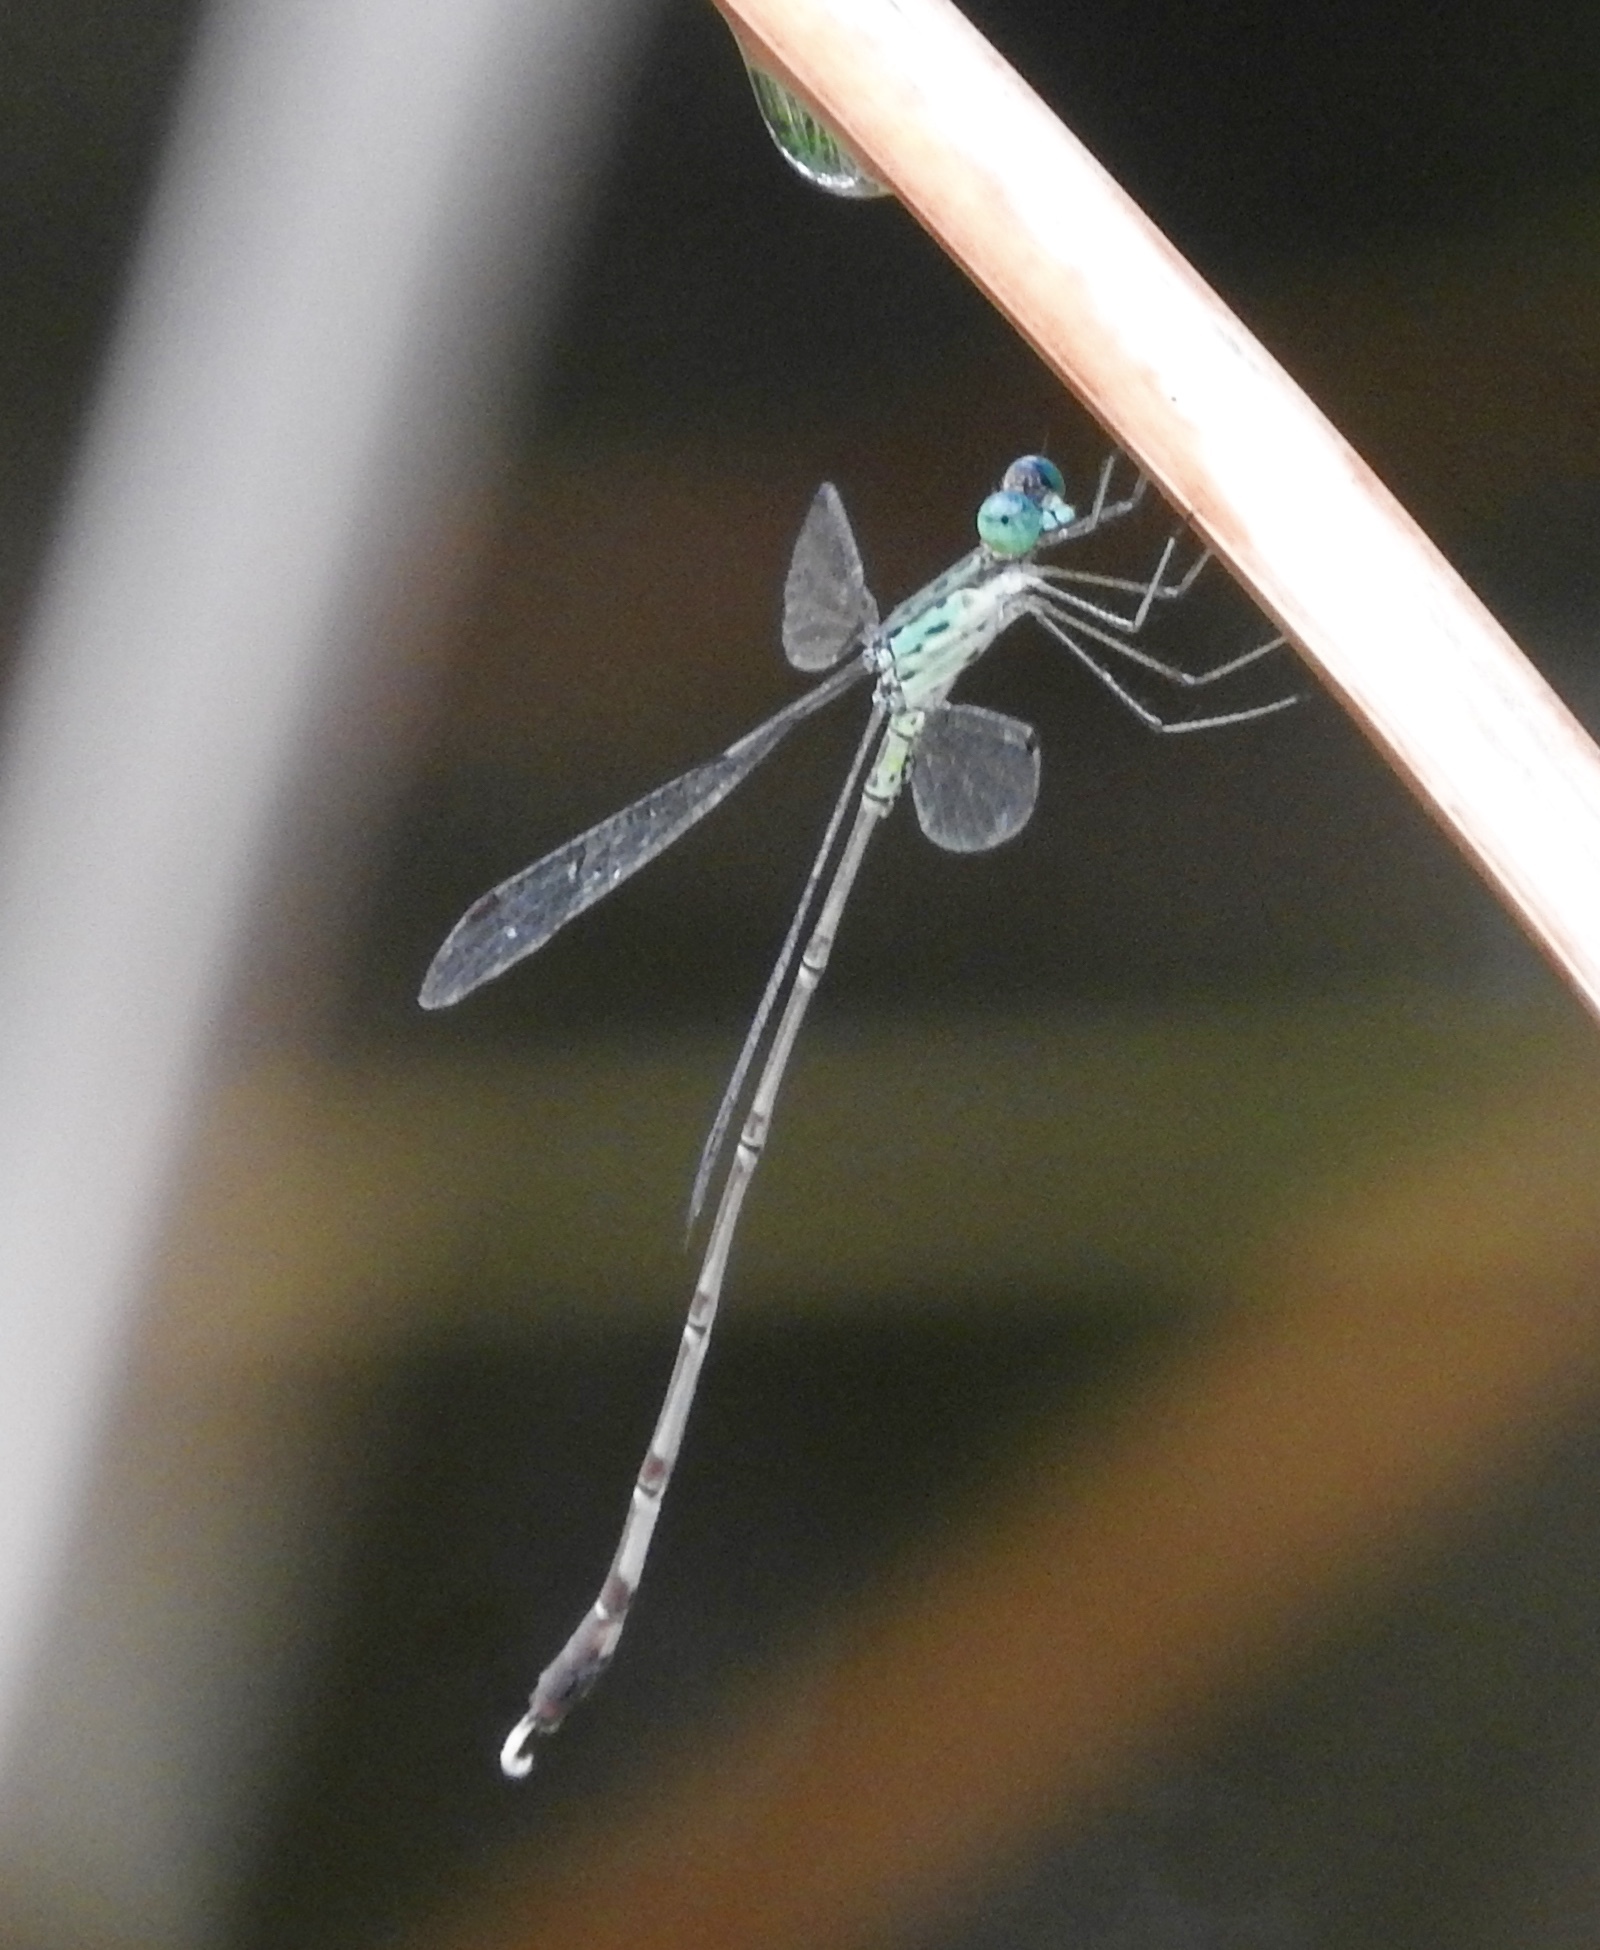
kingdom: Animalia
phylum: Arthropoda
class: Insecta
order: Odonata
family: Lestidae
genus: Lestes
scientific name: Lestes uncifer
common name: Sickle spreadwing
